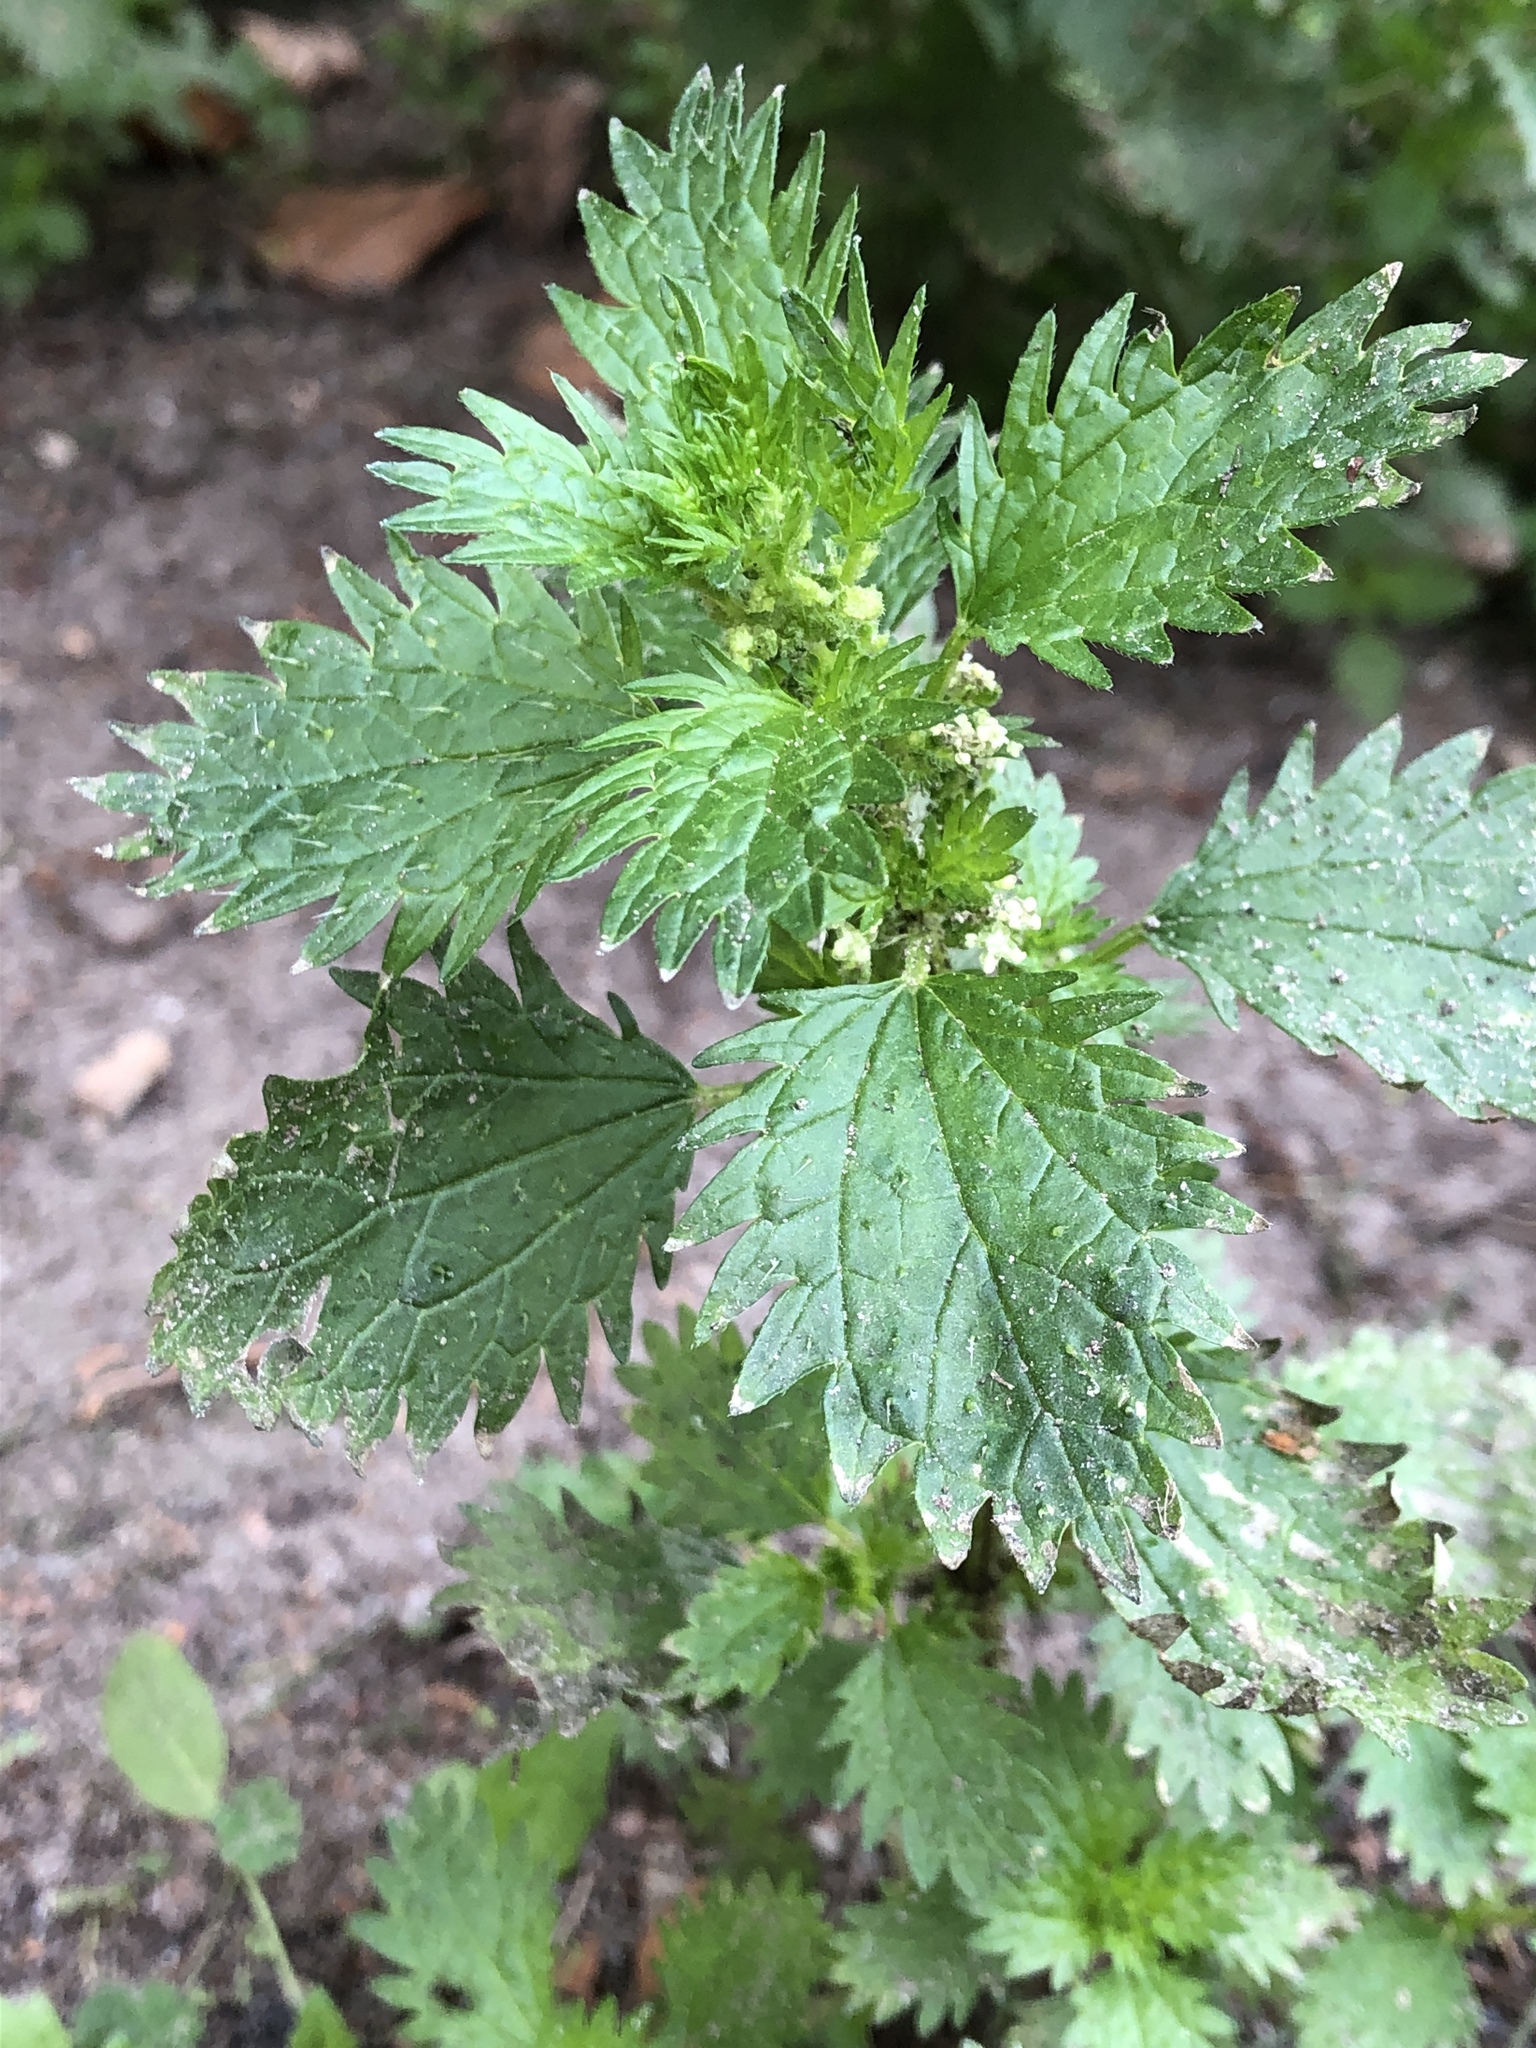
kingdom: Plantae
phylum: Tracheophyta
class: Magnoliopsida
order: Rosales
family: Urticaceae
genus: Urtica
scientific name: Urtica urens
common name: Dwarf nettle
